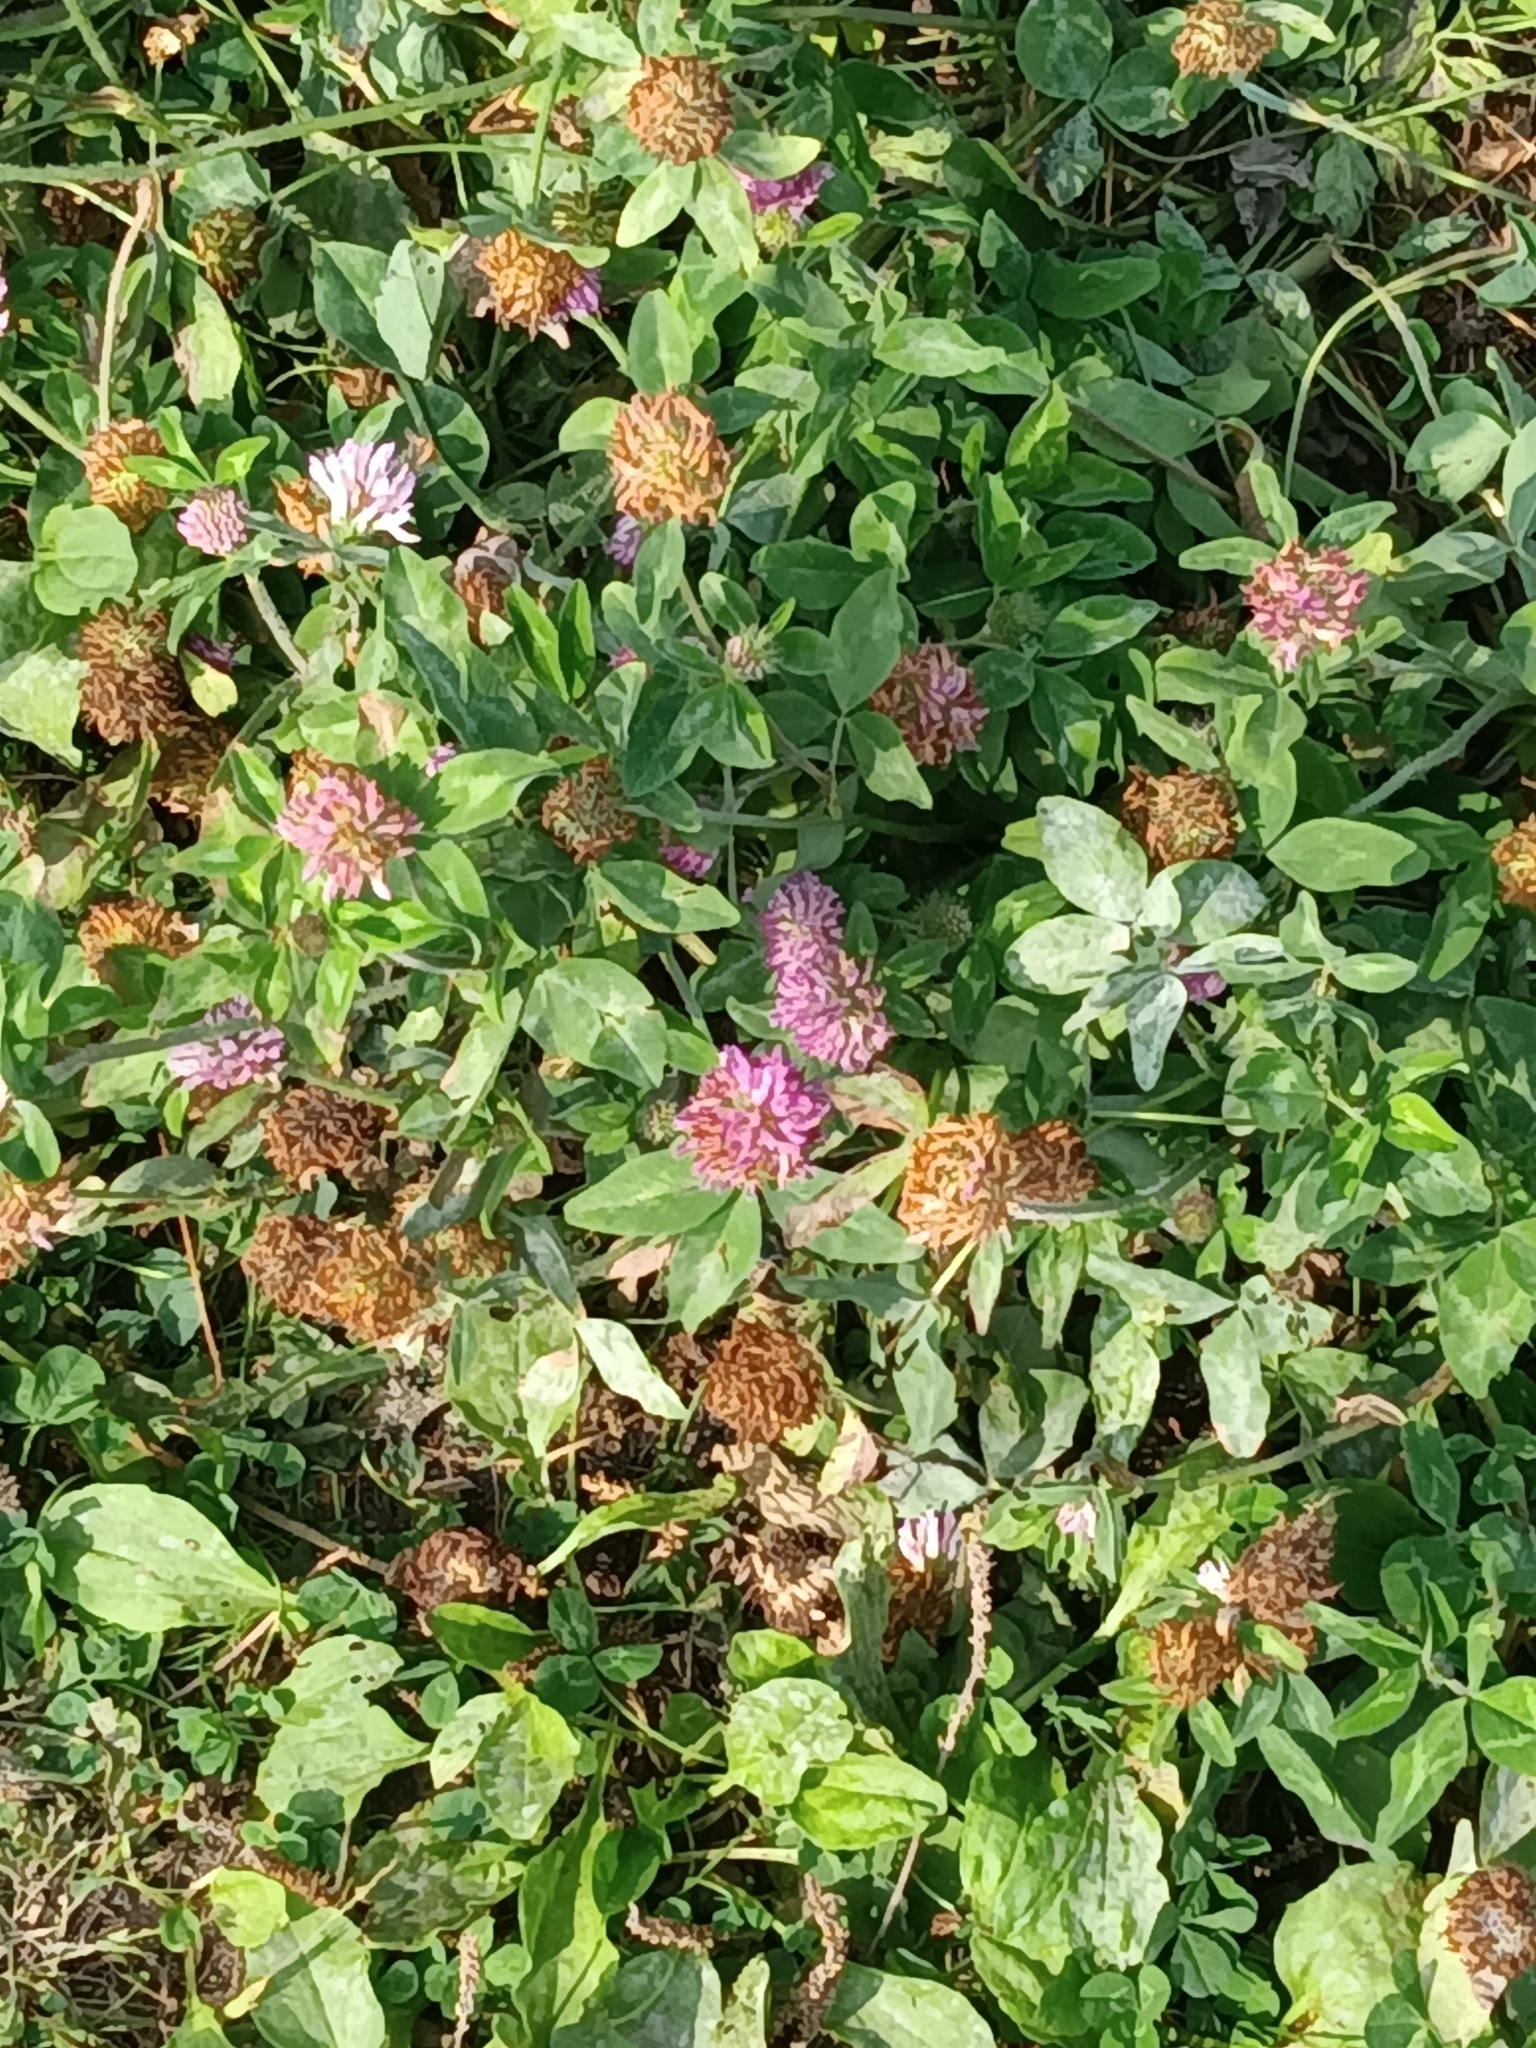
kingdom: Plantae
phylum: Tracheophyta
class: Magnoliopsida
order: Fabales
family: Fabaceae
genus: Trifolium
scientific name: Trifolium pratense
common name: Red clover
